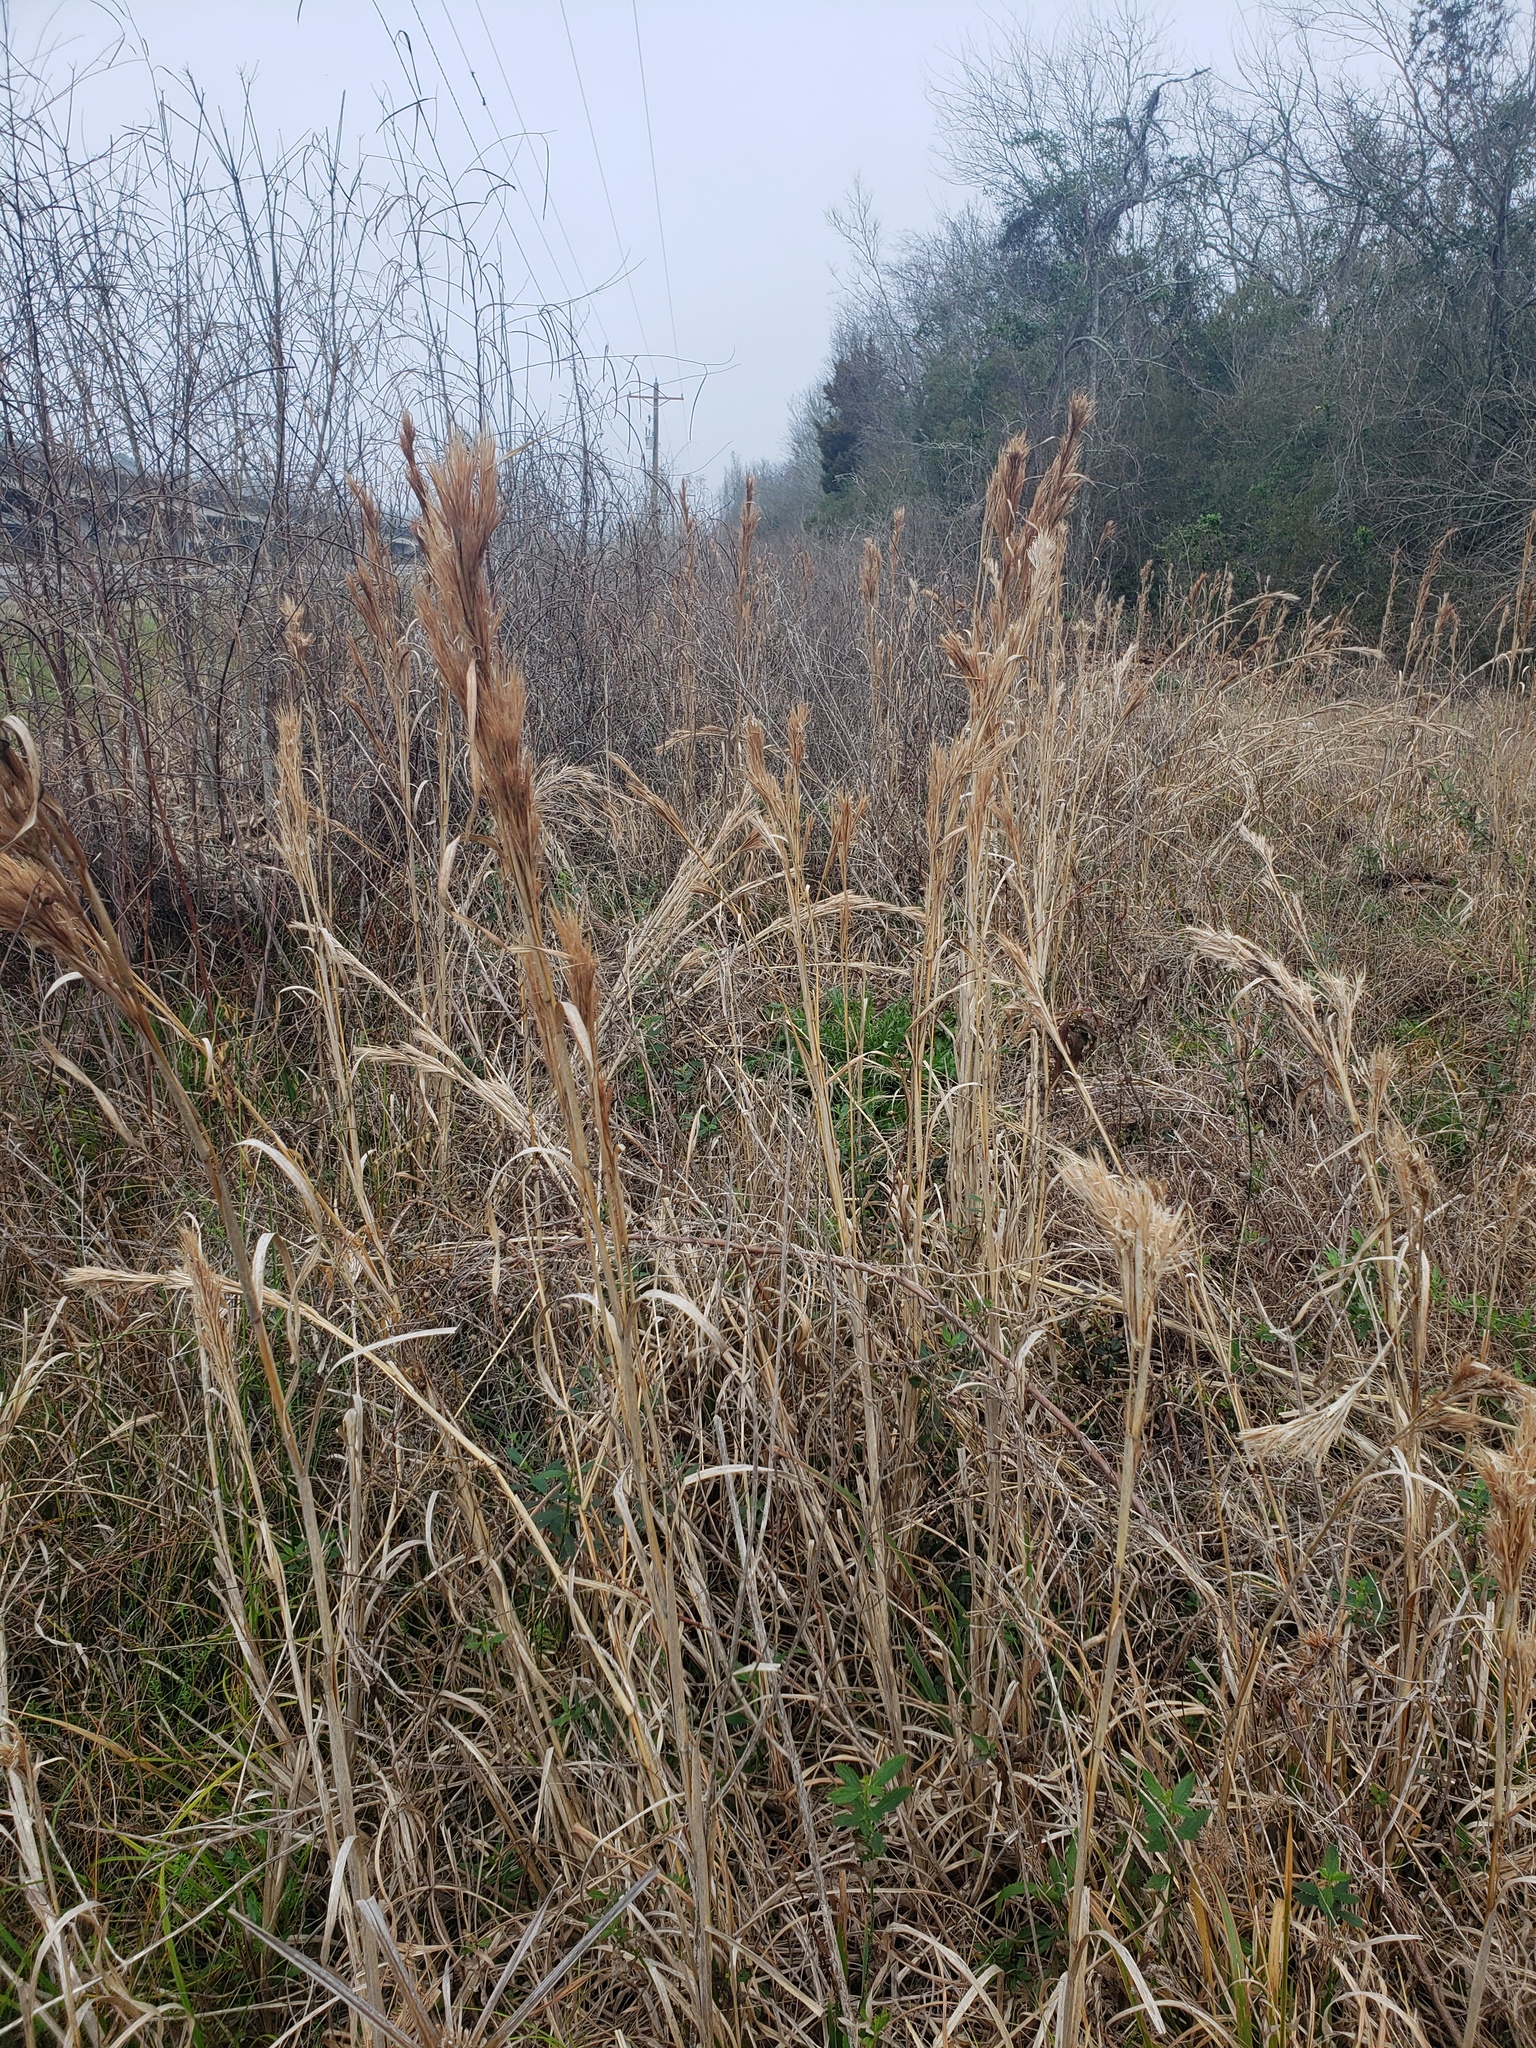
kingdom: Plantae
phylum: Tracheophyta
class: Liliopsida
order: Poales
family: Poaceae
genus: Andropogon
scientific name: Andropogon glomeratus
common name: Bushy beard grass
